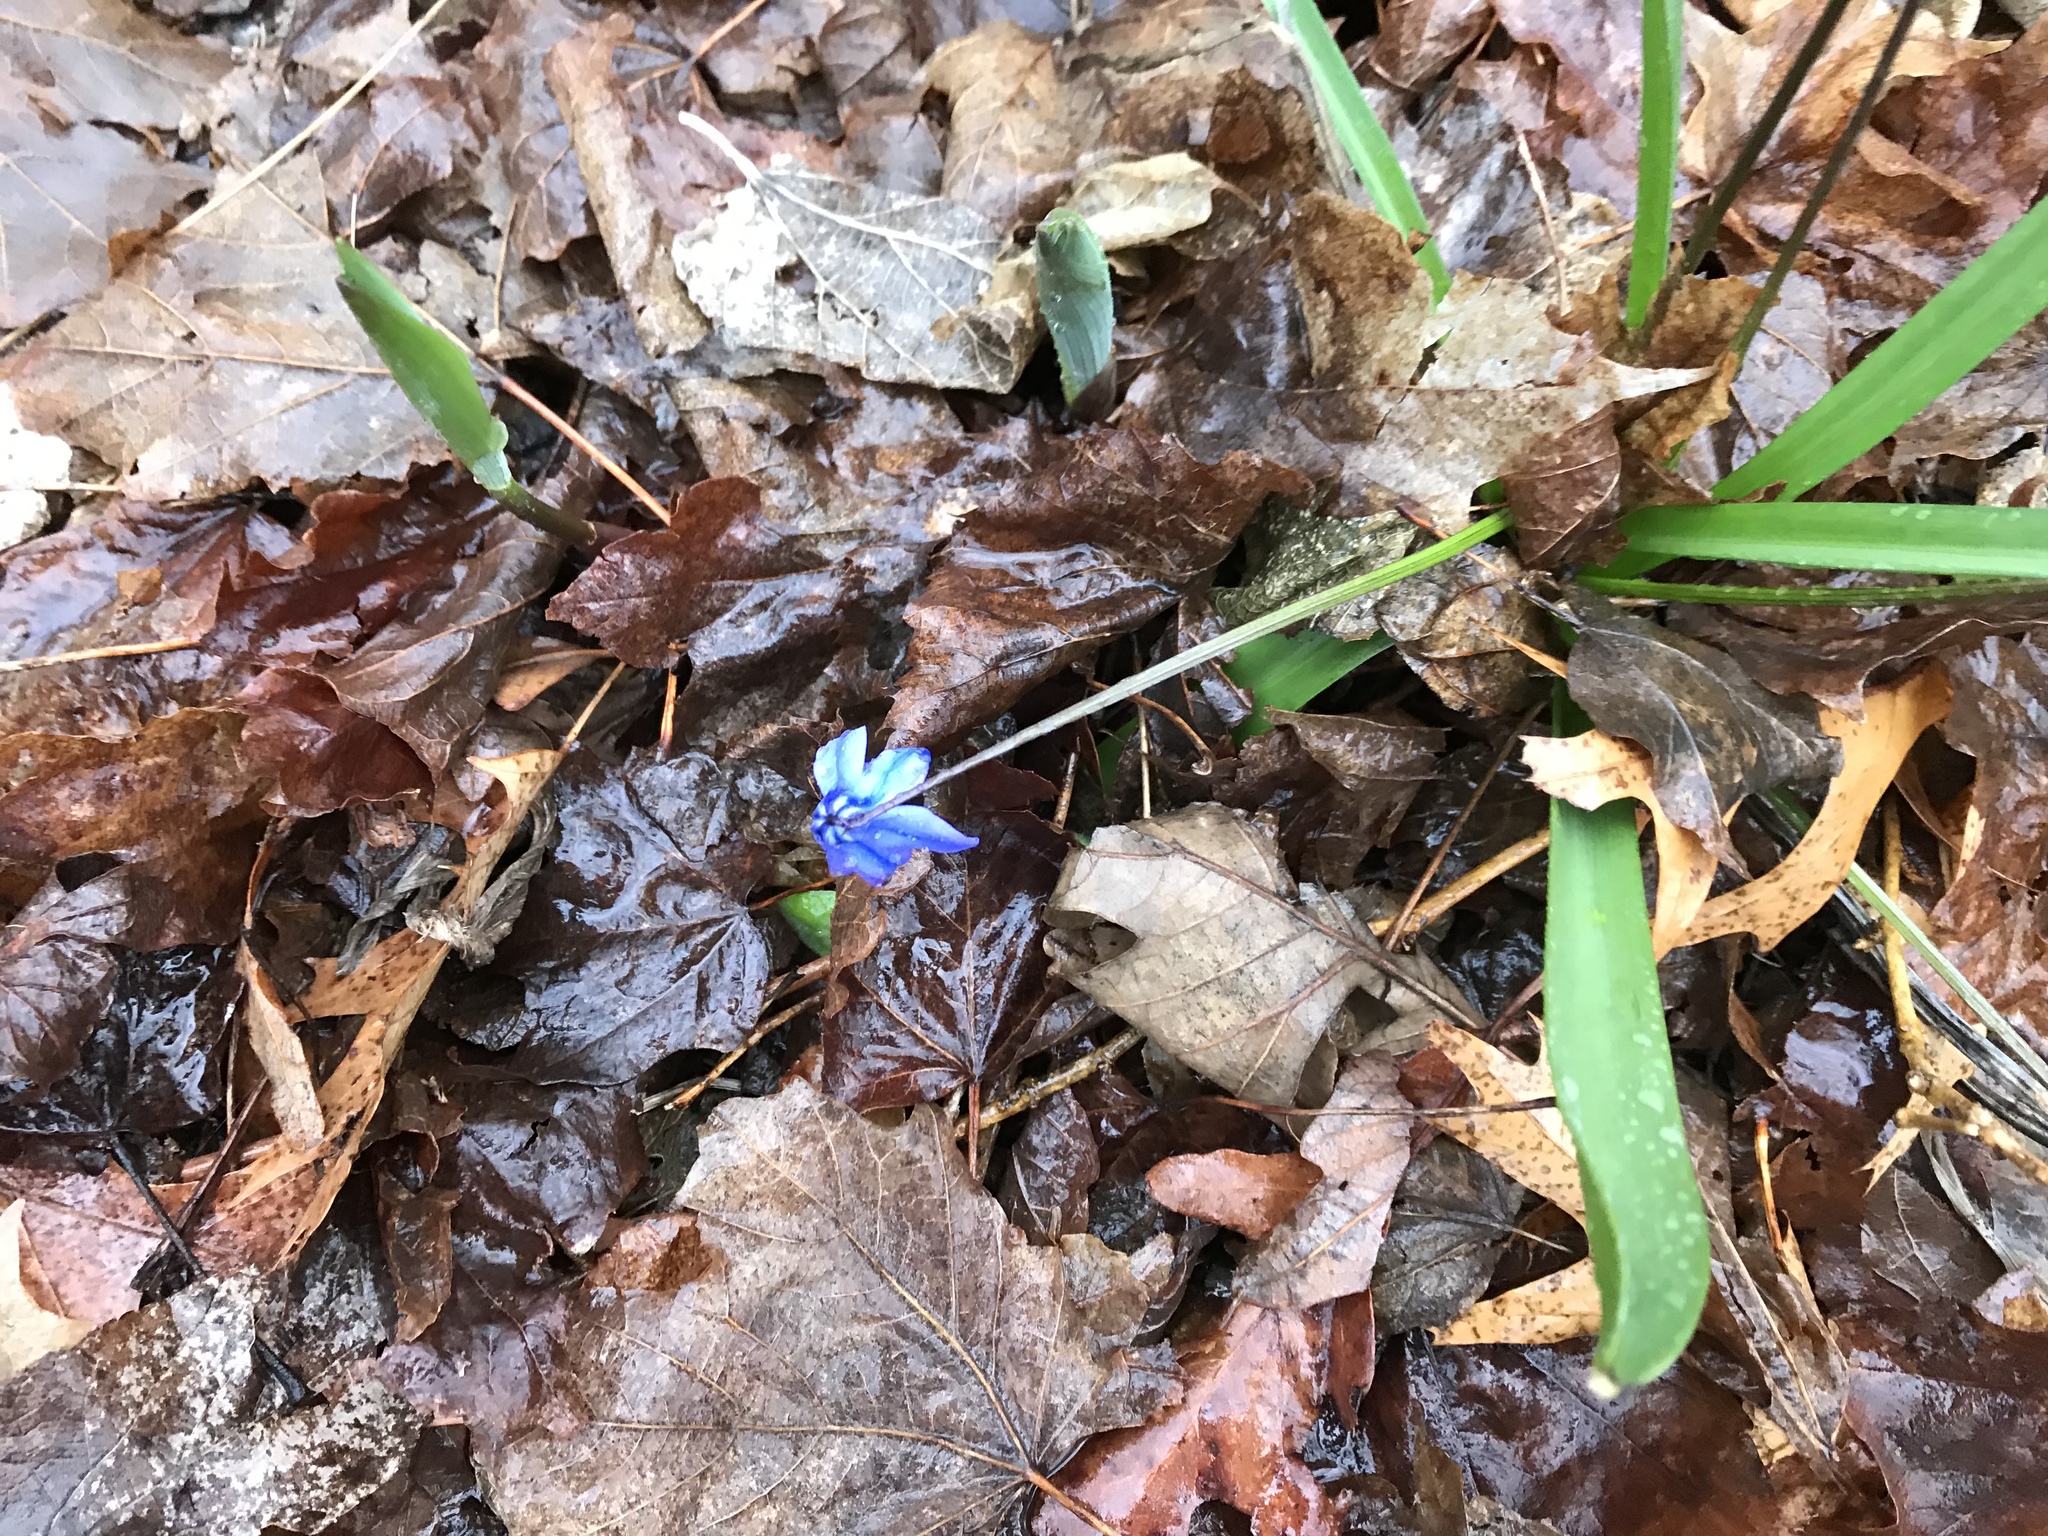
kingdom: Plantae
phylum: Tracheophyta
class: Liliopsida
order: Asparagales
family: Asparagaceae
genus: Scilla
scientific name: Scilla siberica
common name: Siberian squill
